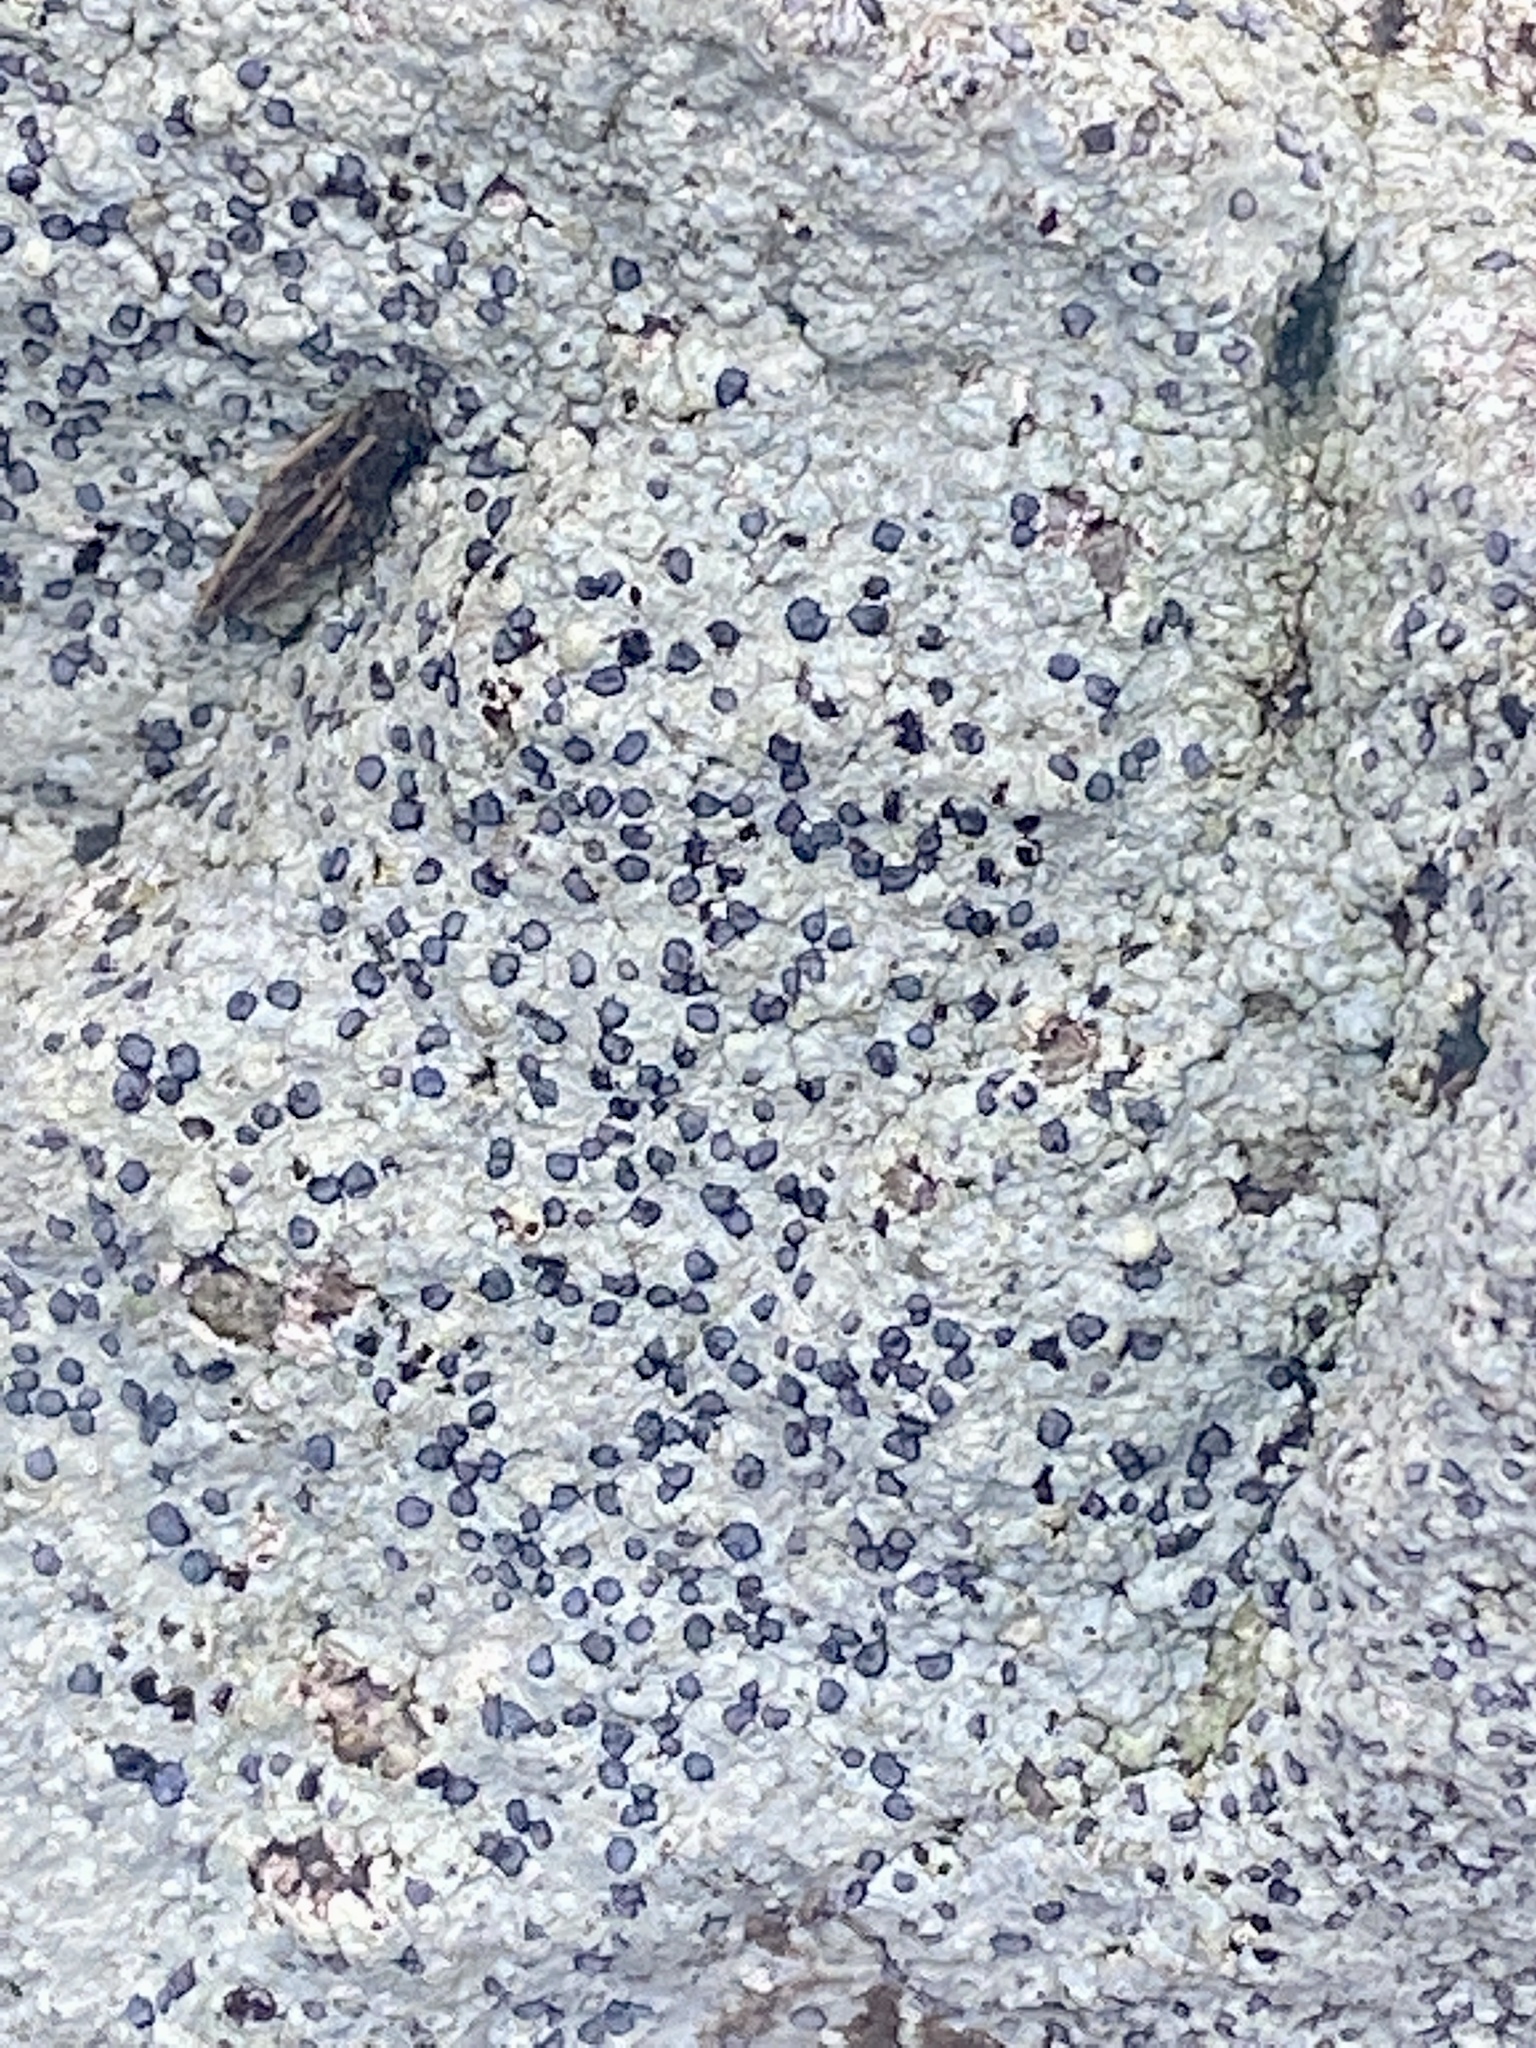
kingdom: Fungi
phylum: Ascomycota
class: Lecanoromycetes
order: Lecideales
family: Lecideaceae
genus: Porpidia
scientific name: Porpidia albocaerulescens
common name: Smokey-eyed boulder lichen
